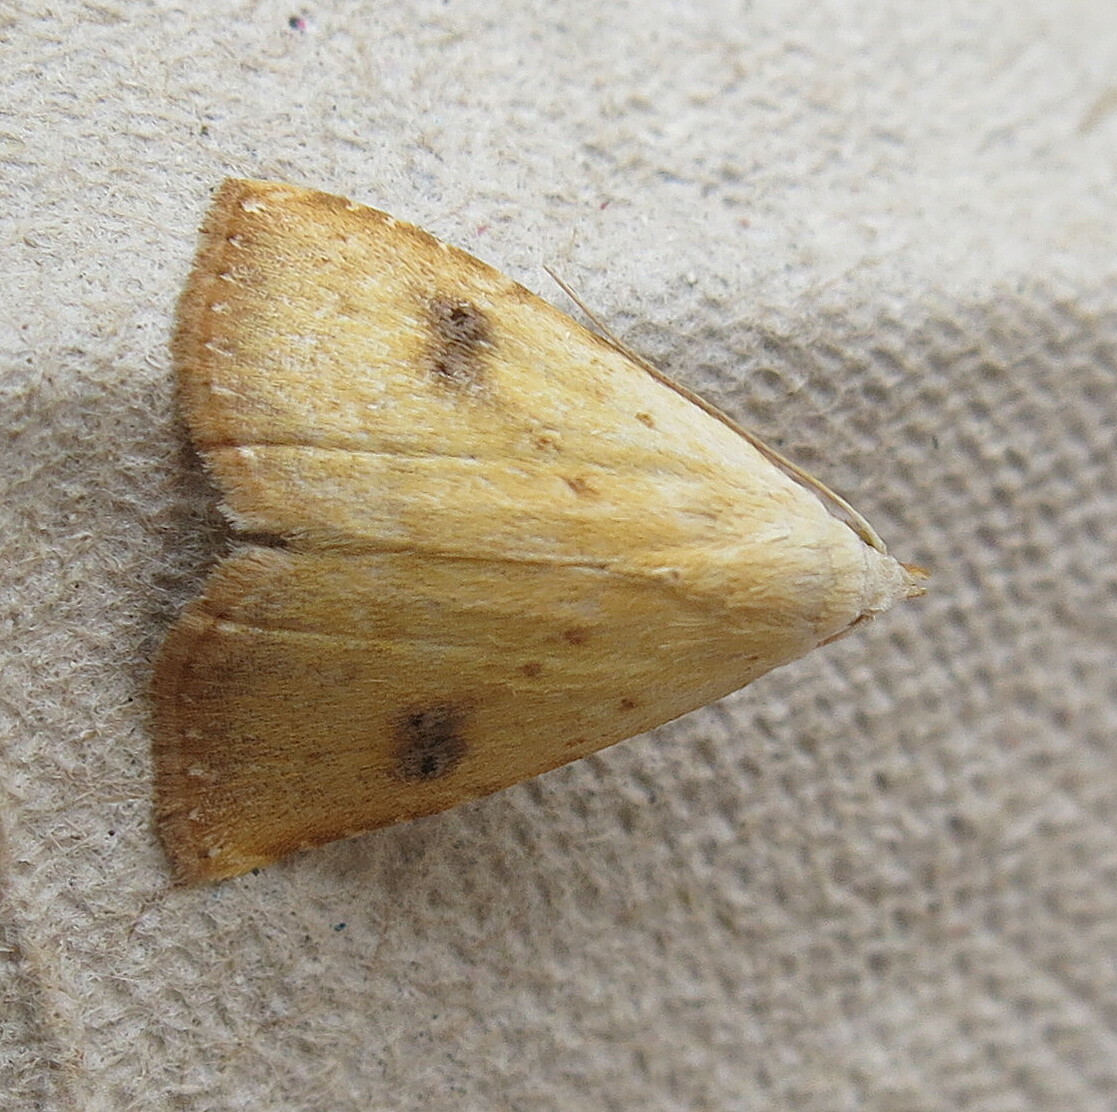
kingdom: Animalia
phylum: Arthropoda
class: Insecta
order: Lepidoptera
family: Erebidae
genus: Rivula
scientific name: Rivula sericealis
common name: Straw dot
